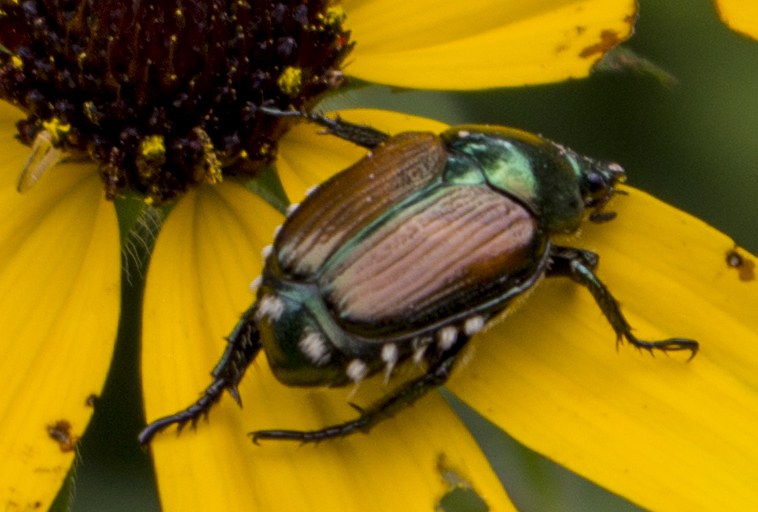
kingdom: Animalia
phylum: Arthropoda
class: Insecta
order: Coleoptera
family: Scarabaeidae
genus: Popillia
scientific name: Popillia japonica
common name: Japanese beetle
